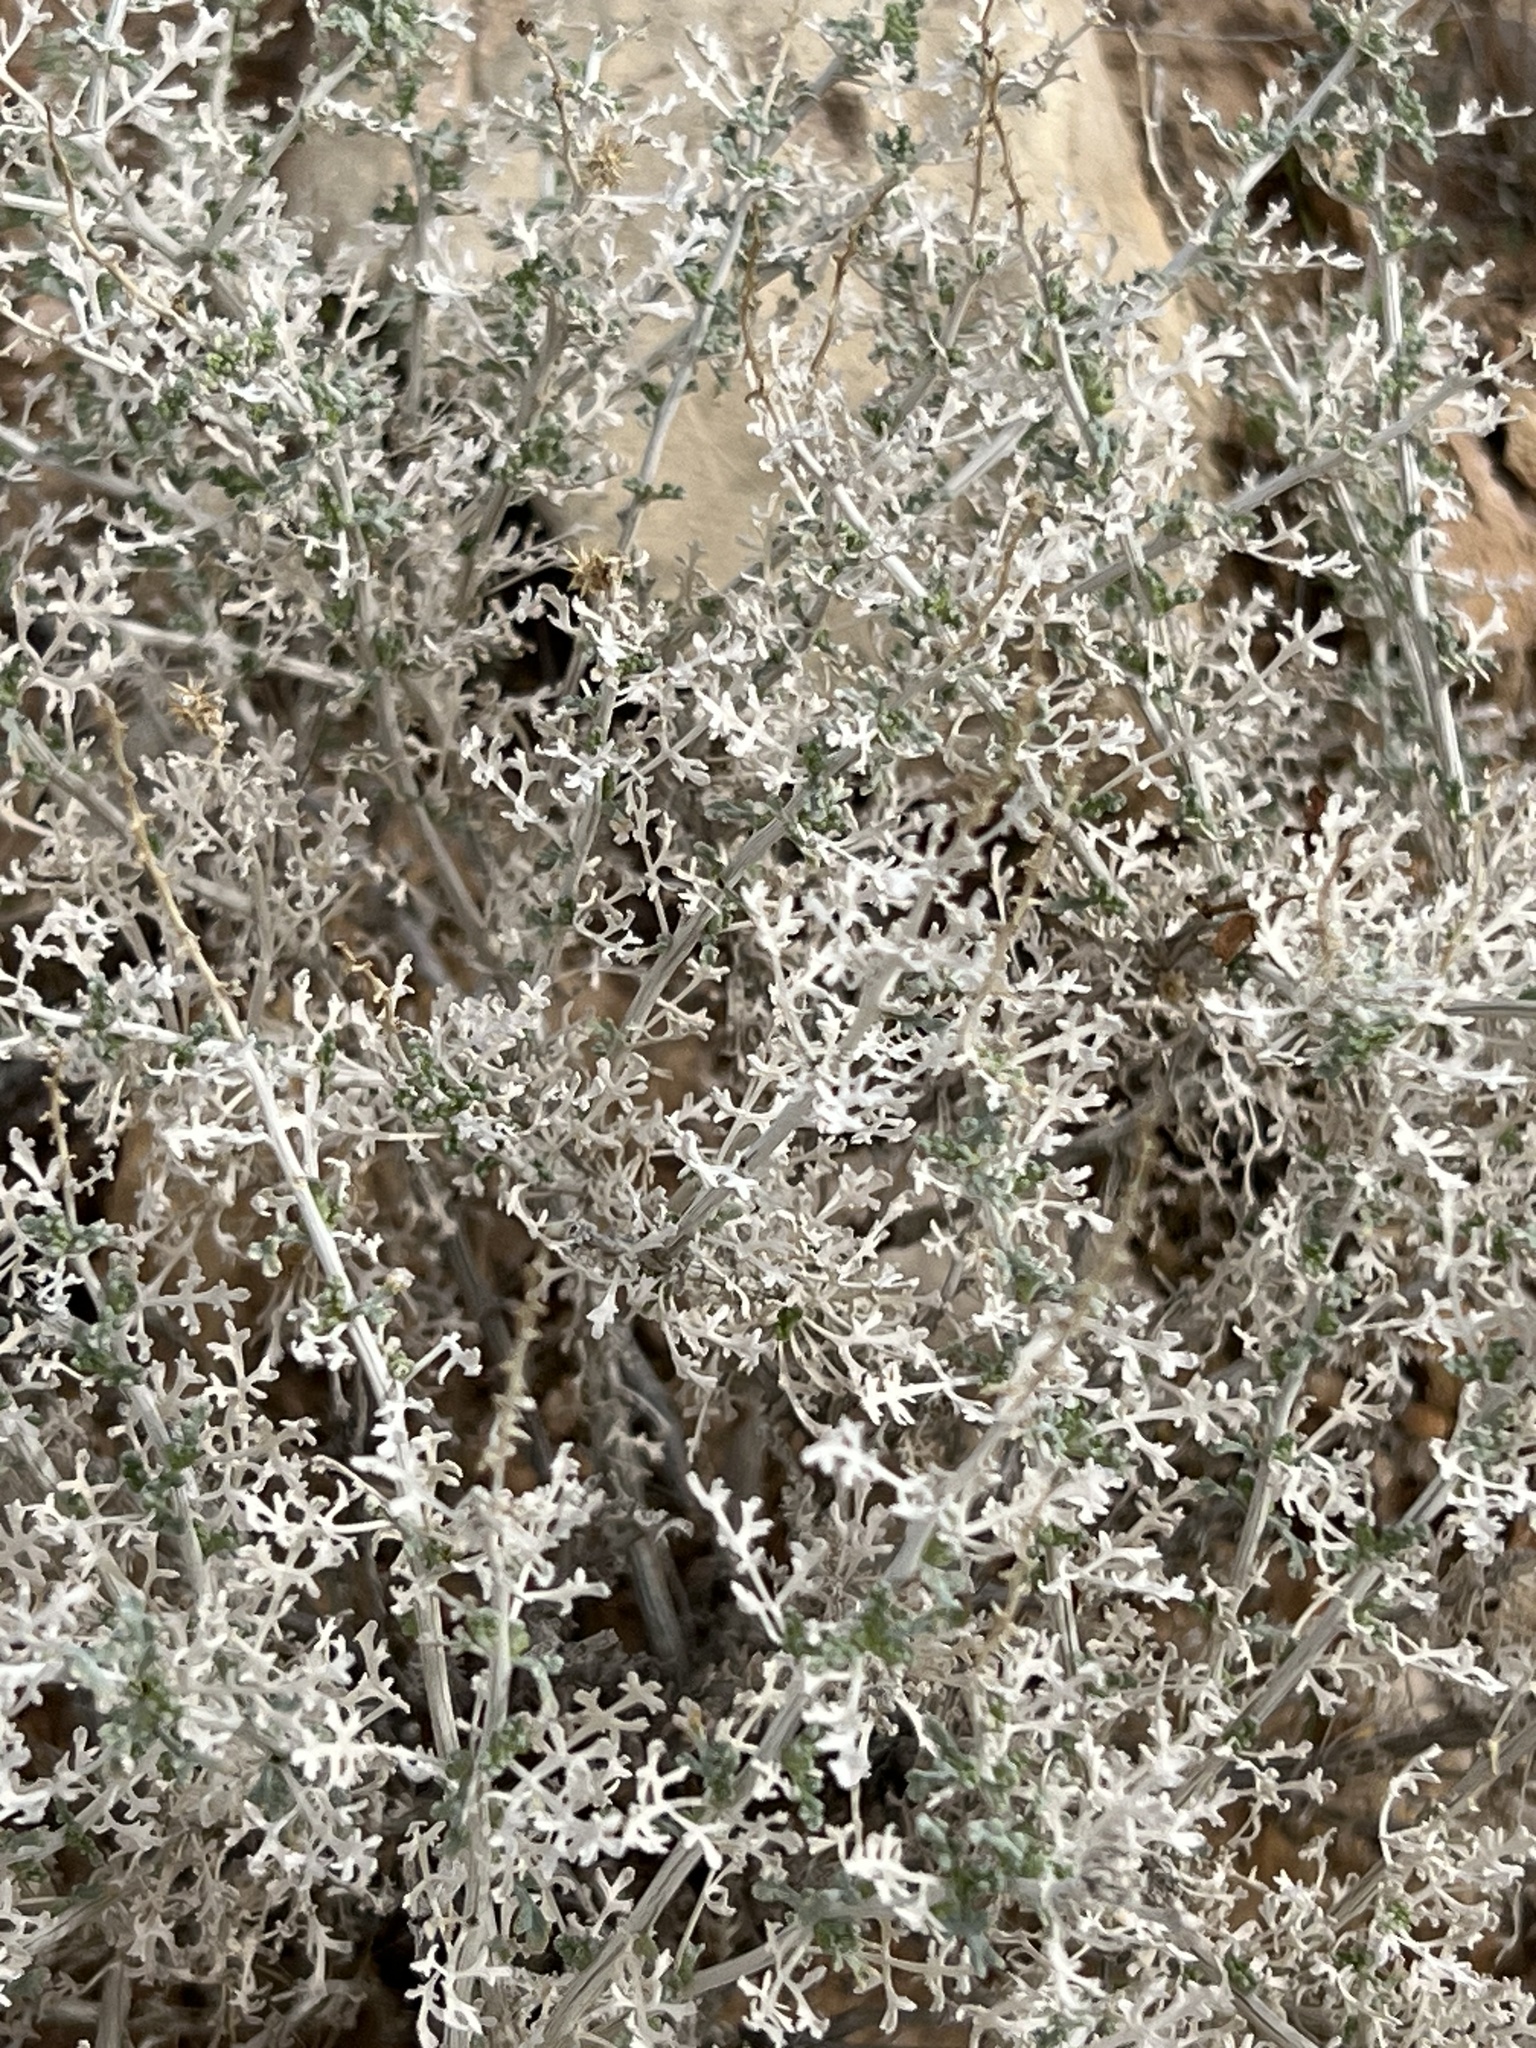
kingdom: Plantae
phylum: Tracheophyta
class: Magnoliopsida
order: Asterales
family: Asteraceae
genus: Ambrosia
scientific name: Ambrosia dumosa
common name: Bur-sage
